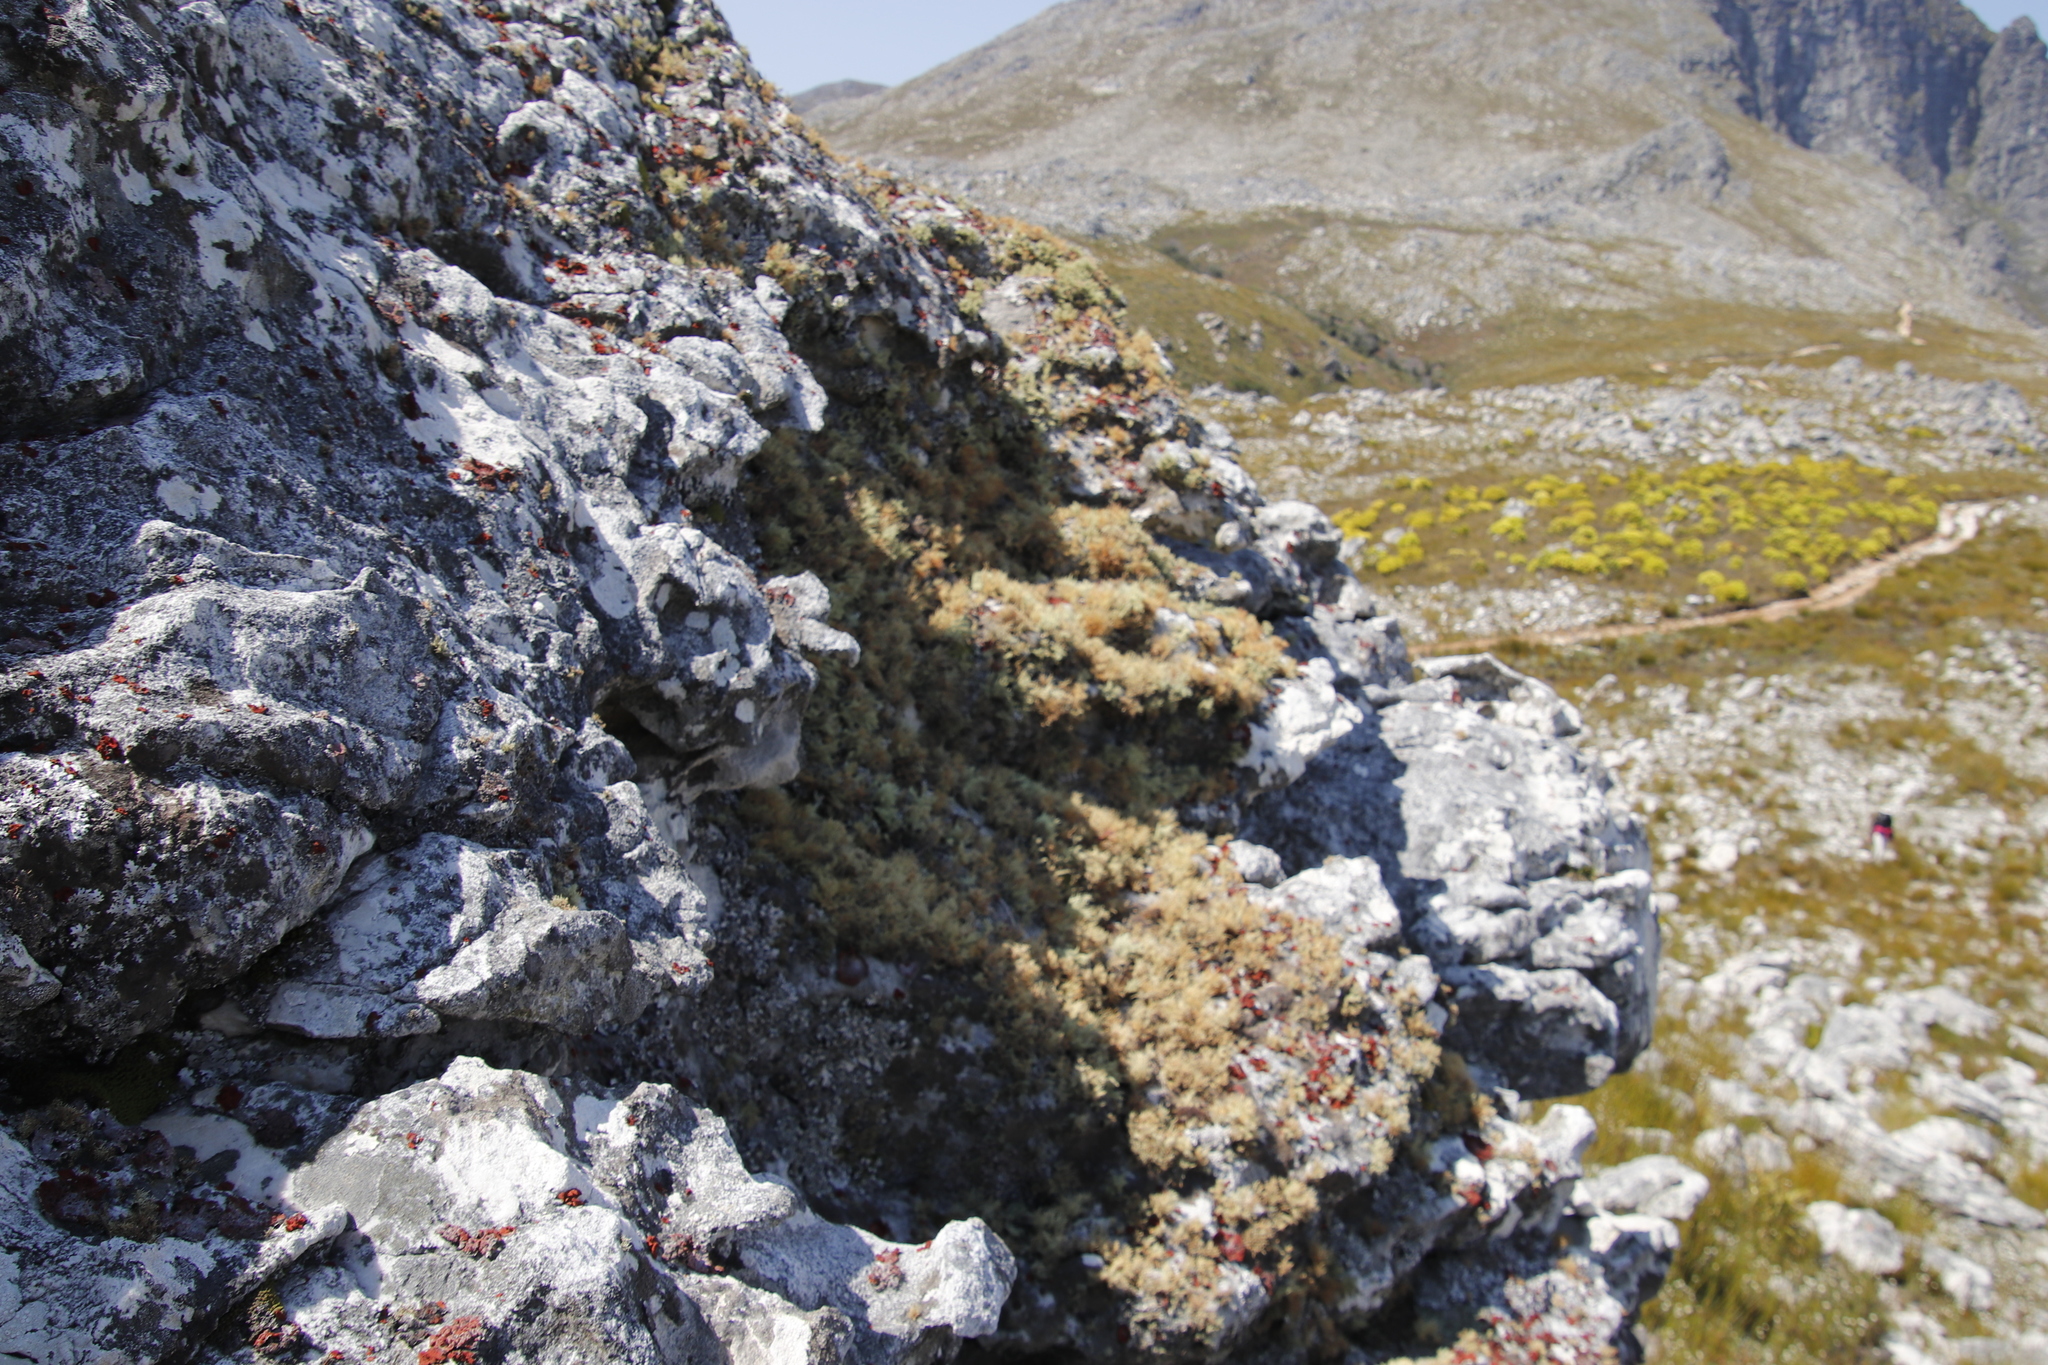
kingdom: Fungi
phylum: Ascomycota
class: Lecanoromycetes
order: Umbilicariales
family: Umbilicariaceae
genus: Lasallia
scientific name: Lasallia rubiginosa
